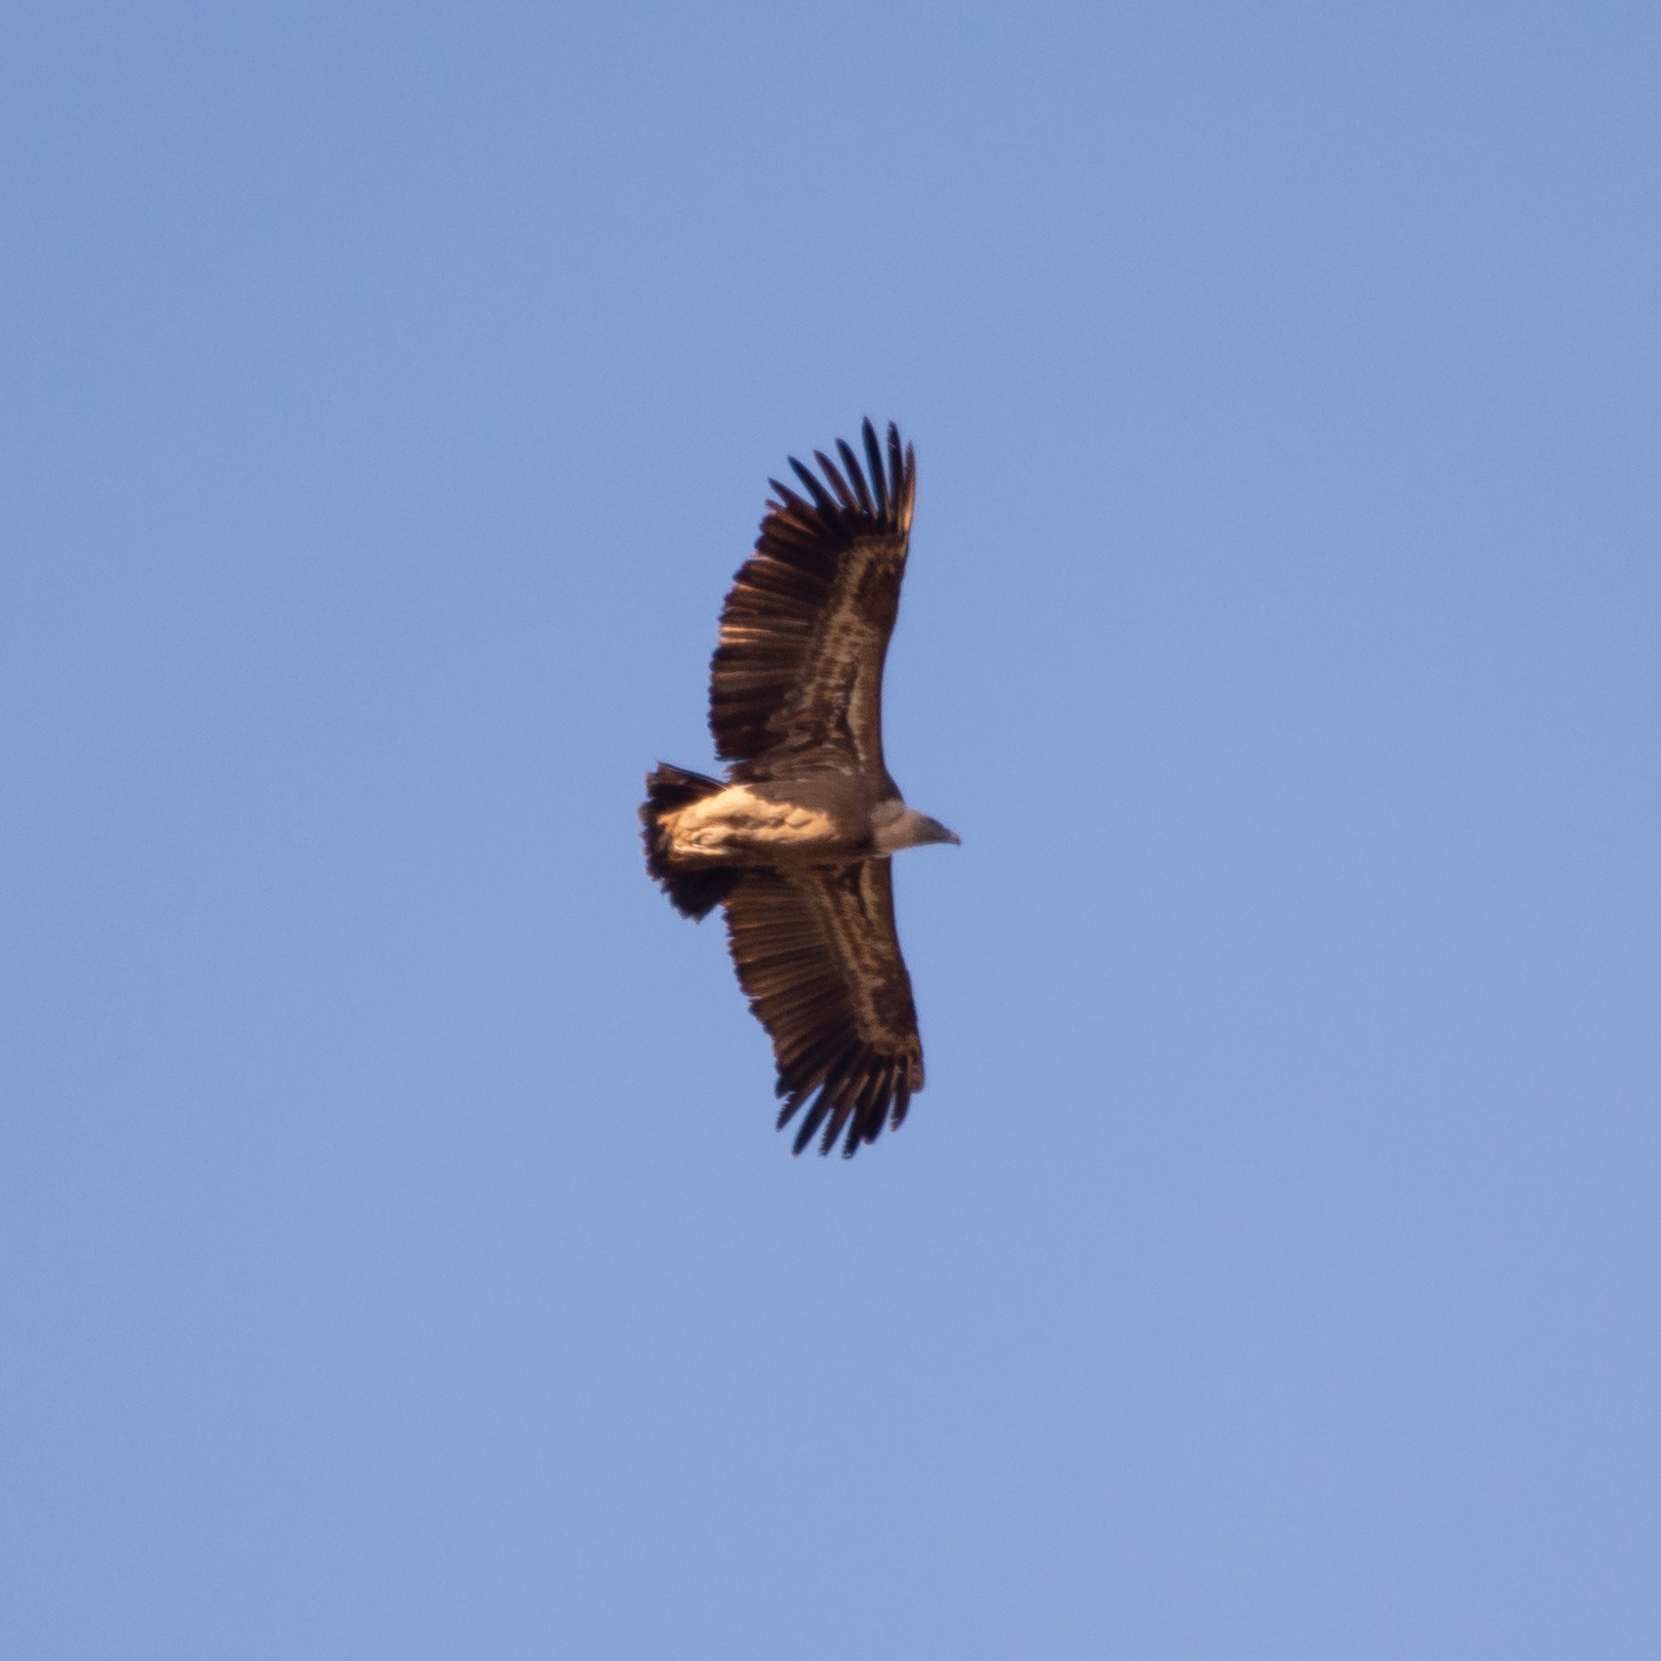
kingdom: Animalia
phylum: Chordata
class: Aves
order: Accipitriformes
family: Accipitridae
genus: Gyps
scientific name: Gyps fulvus
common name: Griffon vulture
